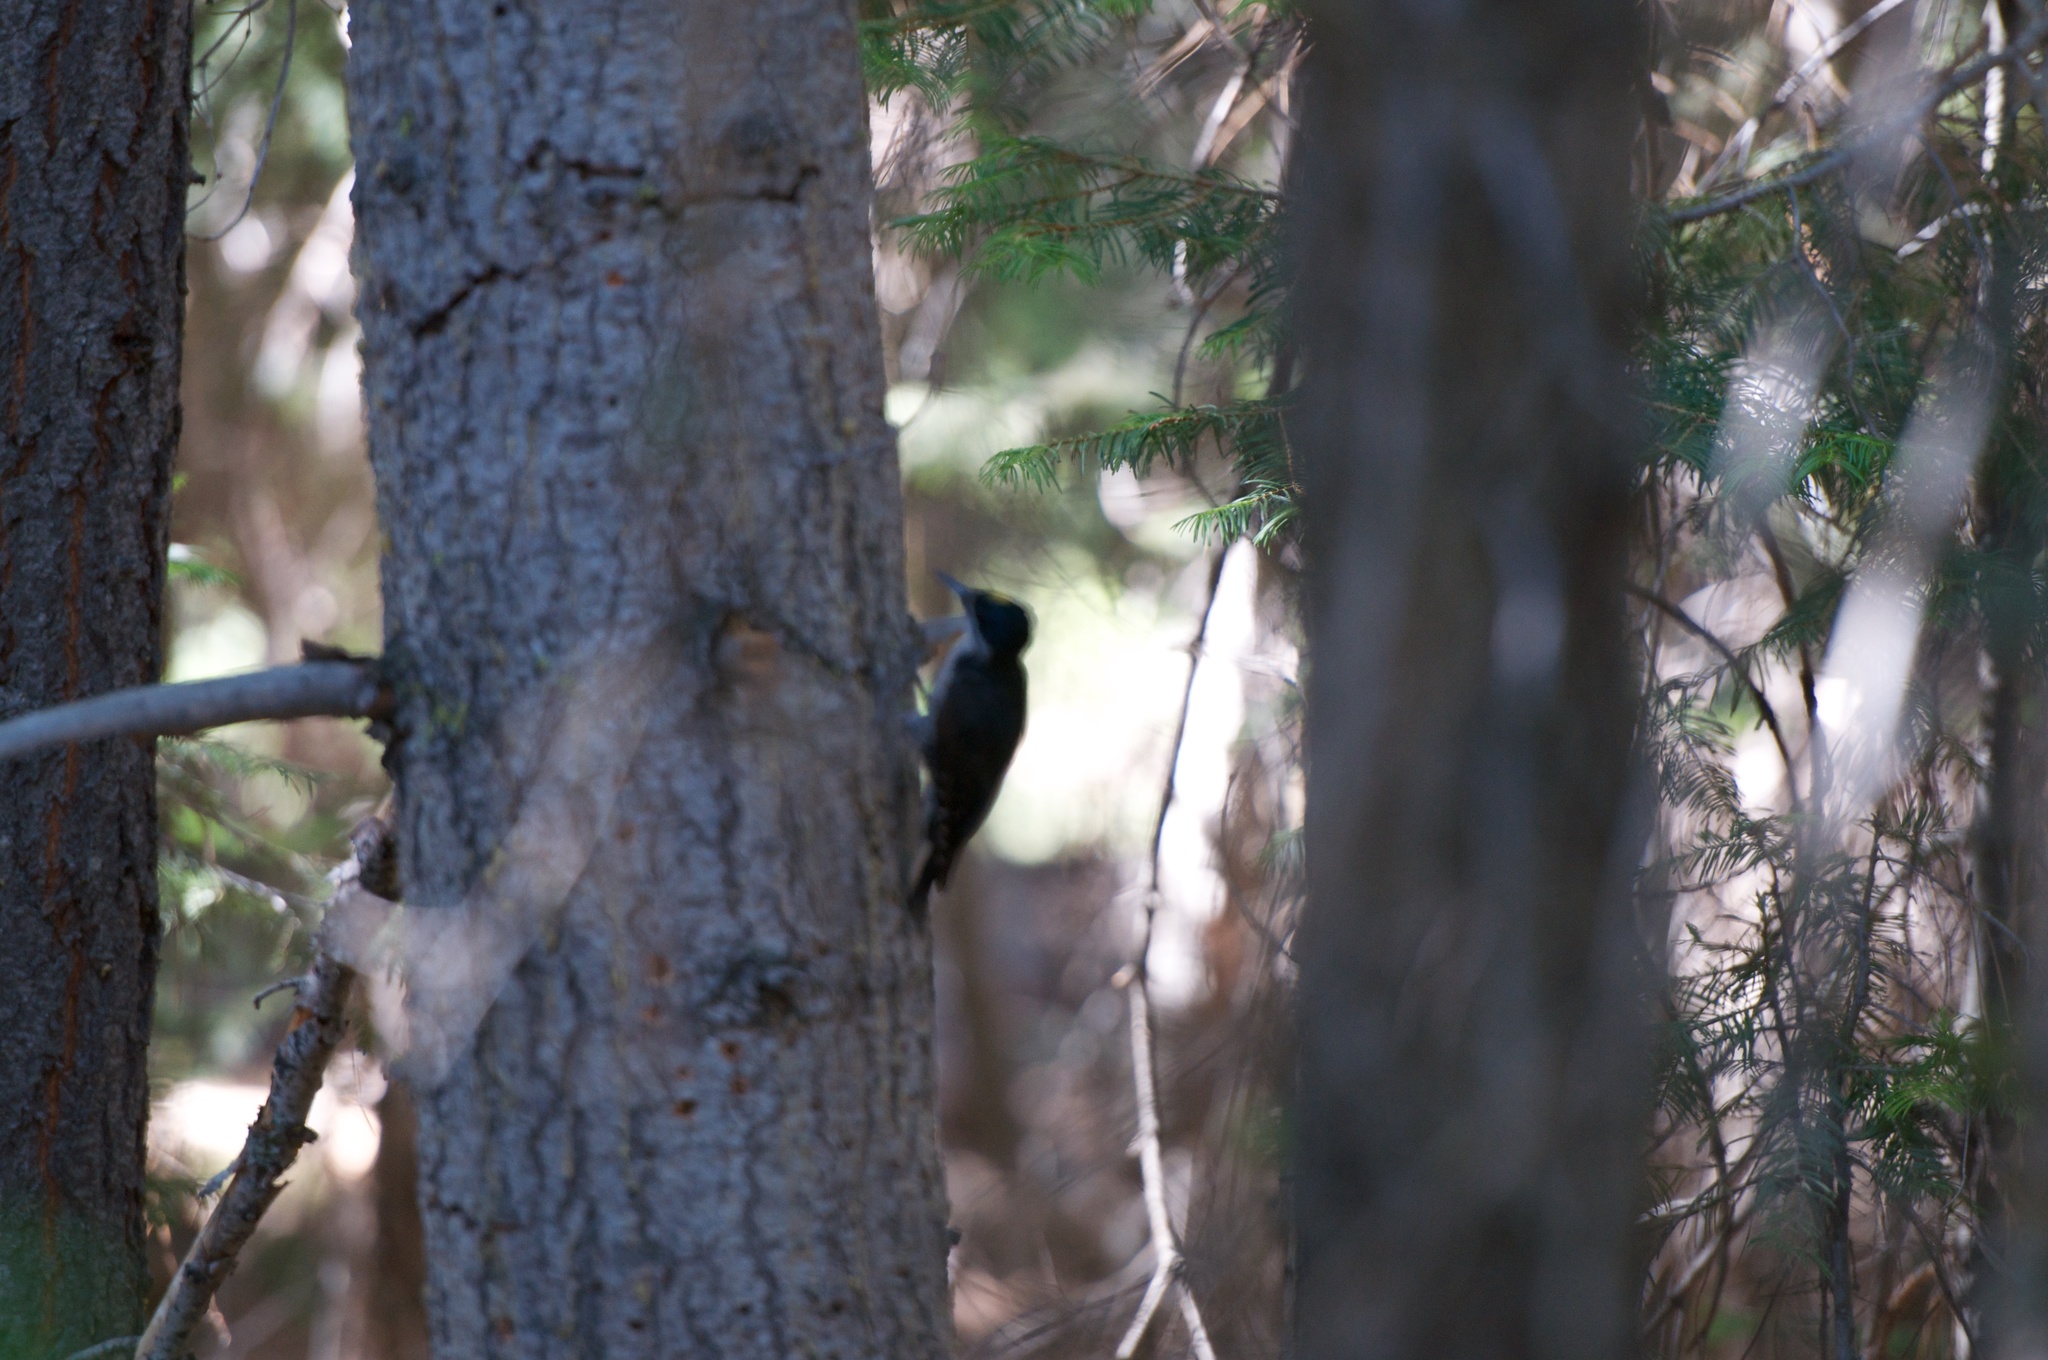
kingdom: Animalia
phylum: Chordata
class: Aves
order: Piciformes
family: Picidae
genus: Picoides
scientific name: Picoides arcticus
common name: Black-backed woodpecker
